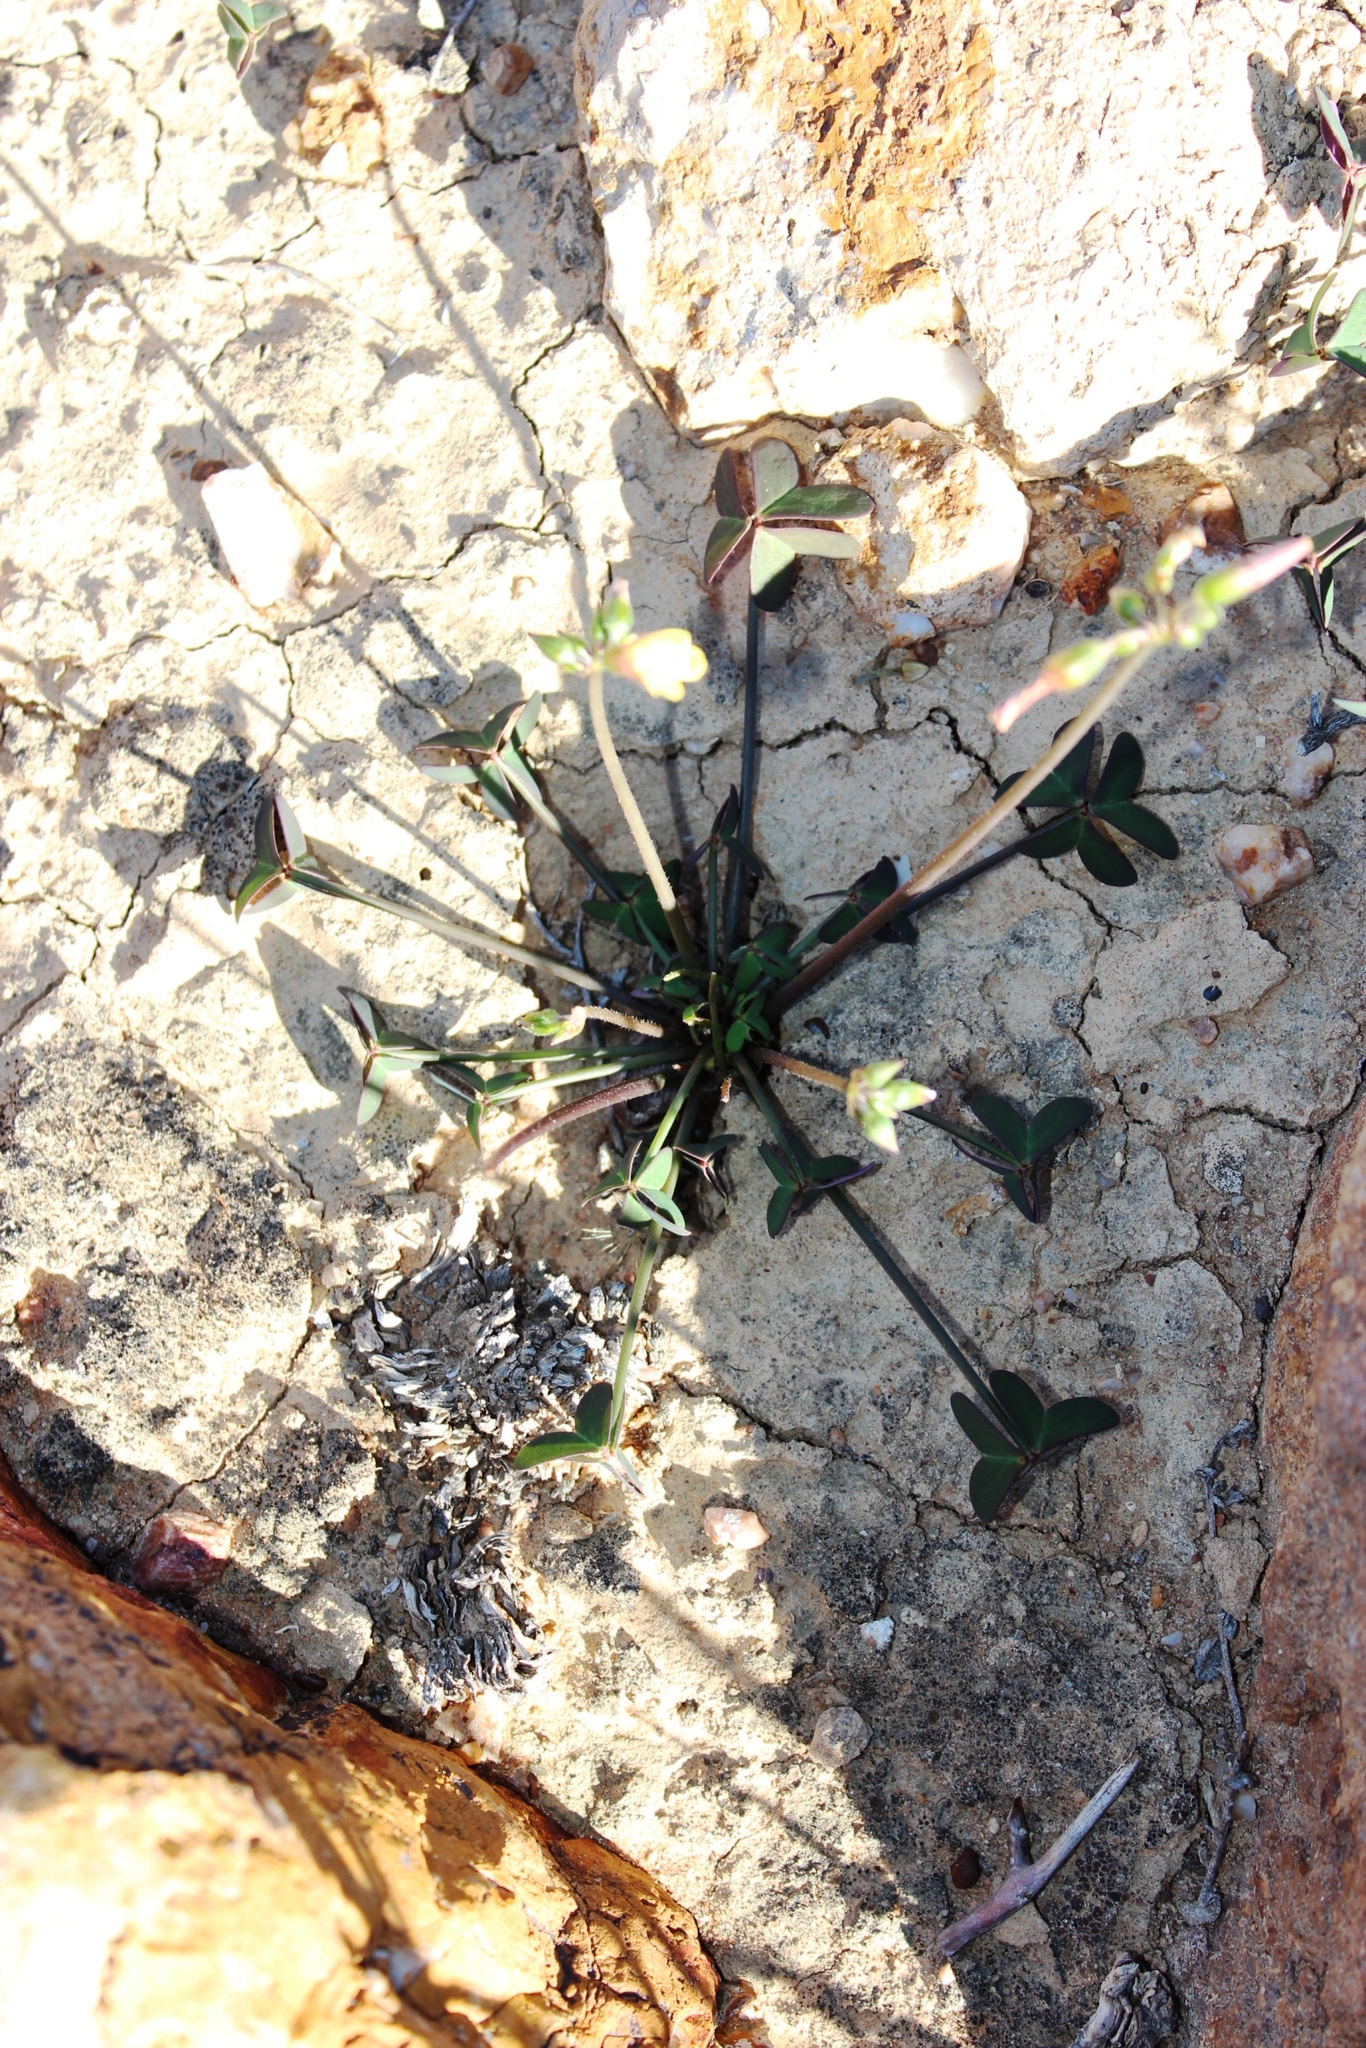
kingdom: Plantae
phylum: Tracheophyta
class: Magnoliopsida
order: Oxalidales
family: Oxalidaceae
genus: Oxalis
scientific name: Oxalis pes-caprae
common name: Bermuda-buttercup
